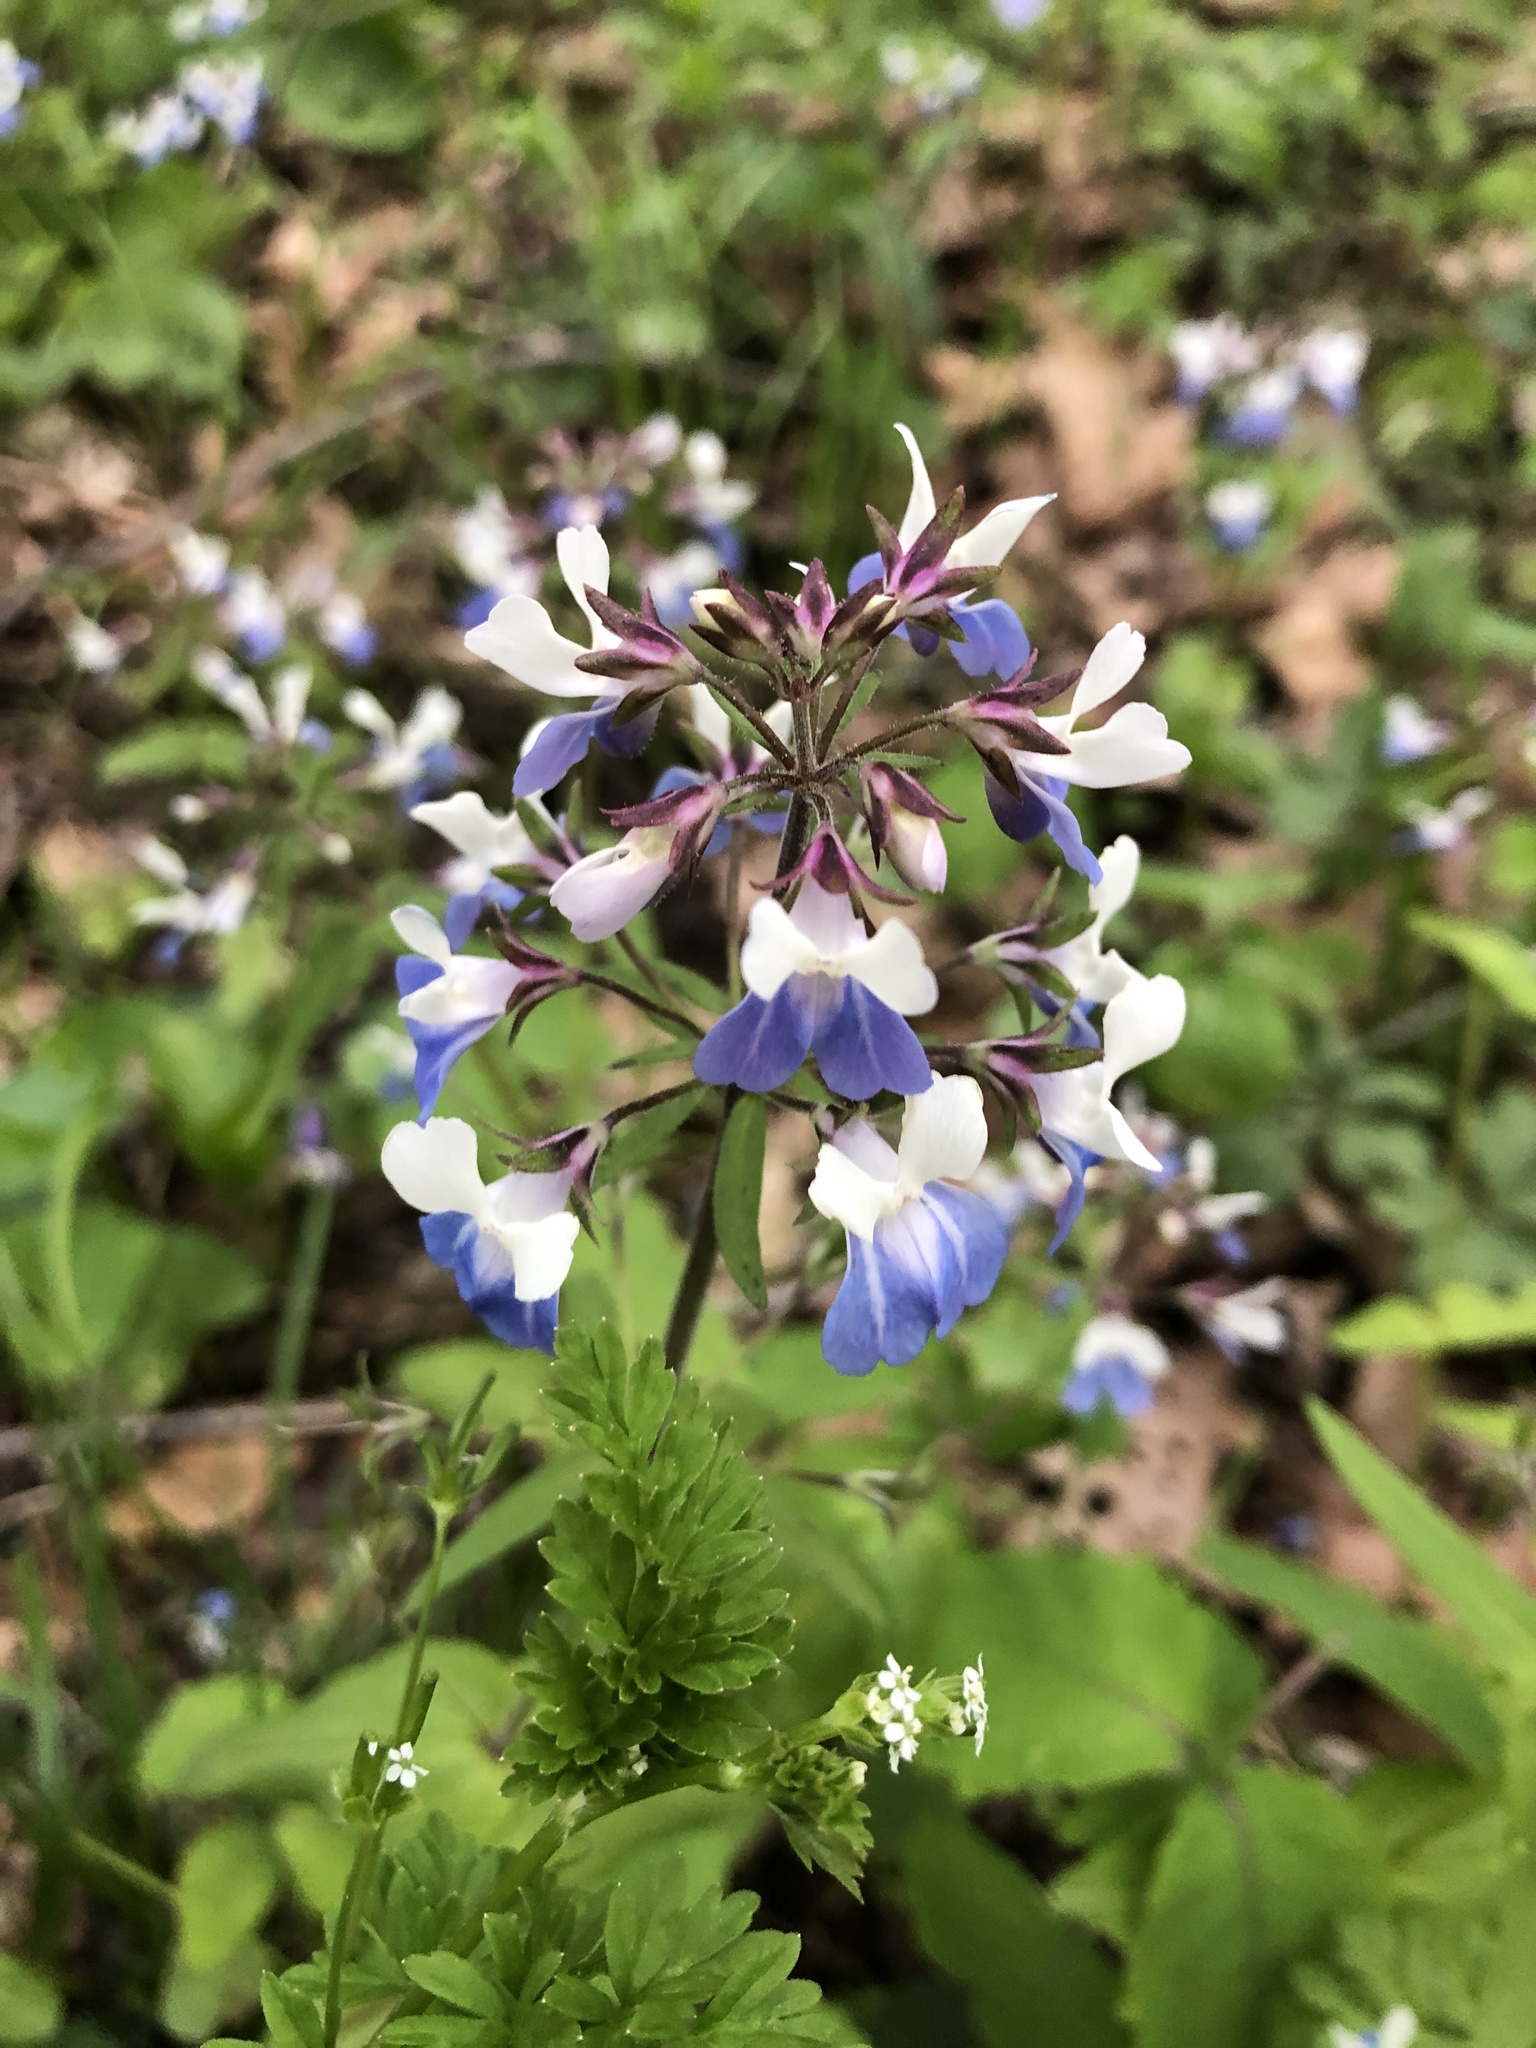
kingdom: Plantae
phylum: Tracheophyta
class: Magnoliopsida
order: Lamiales
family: Plantaginaceae
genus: Collinsia
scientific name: Collinsia verna
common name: Broad-leaved collinsia
